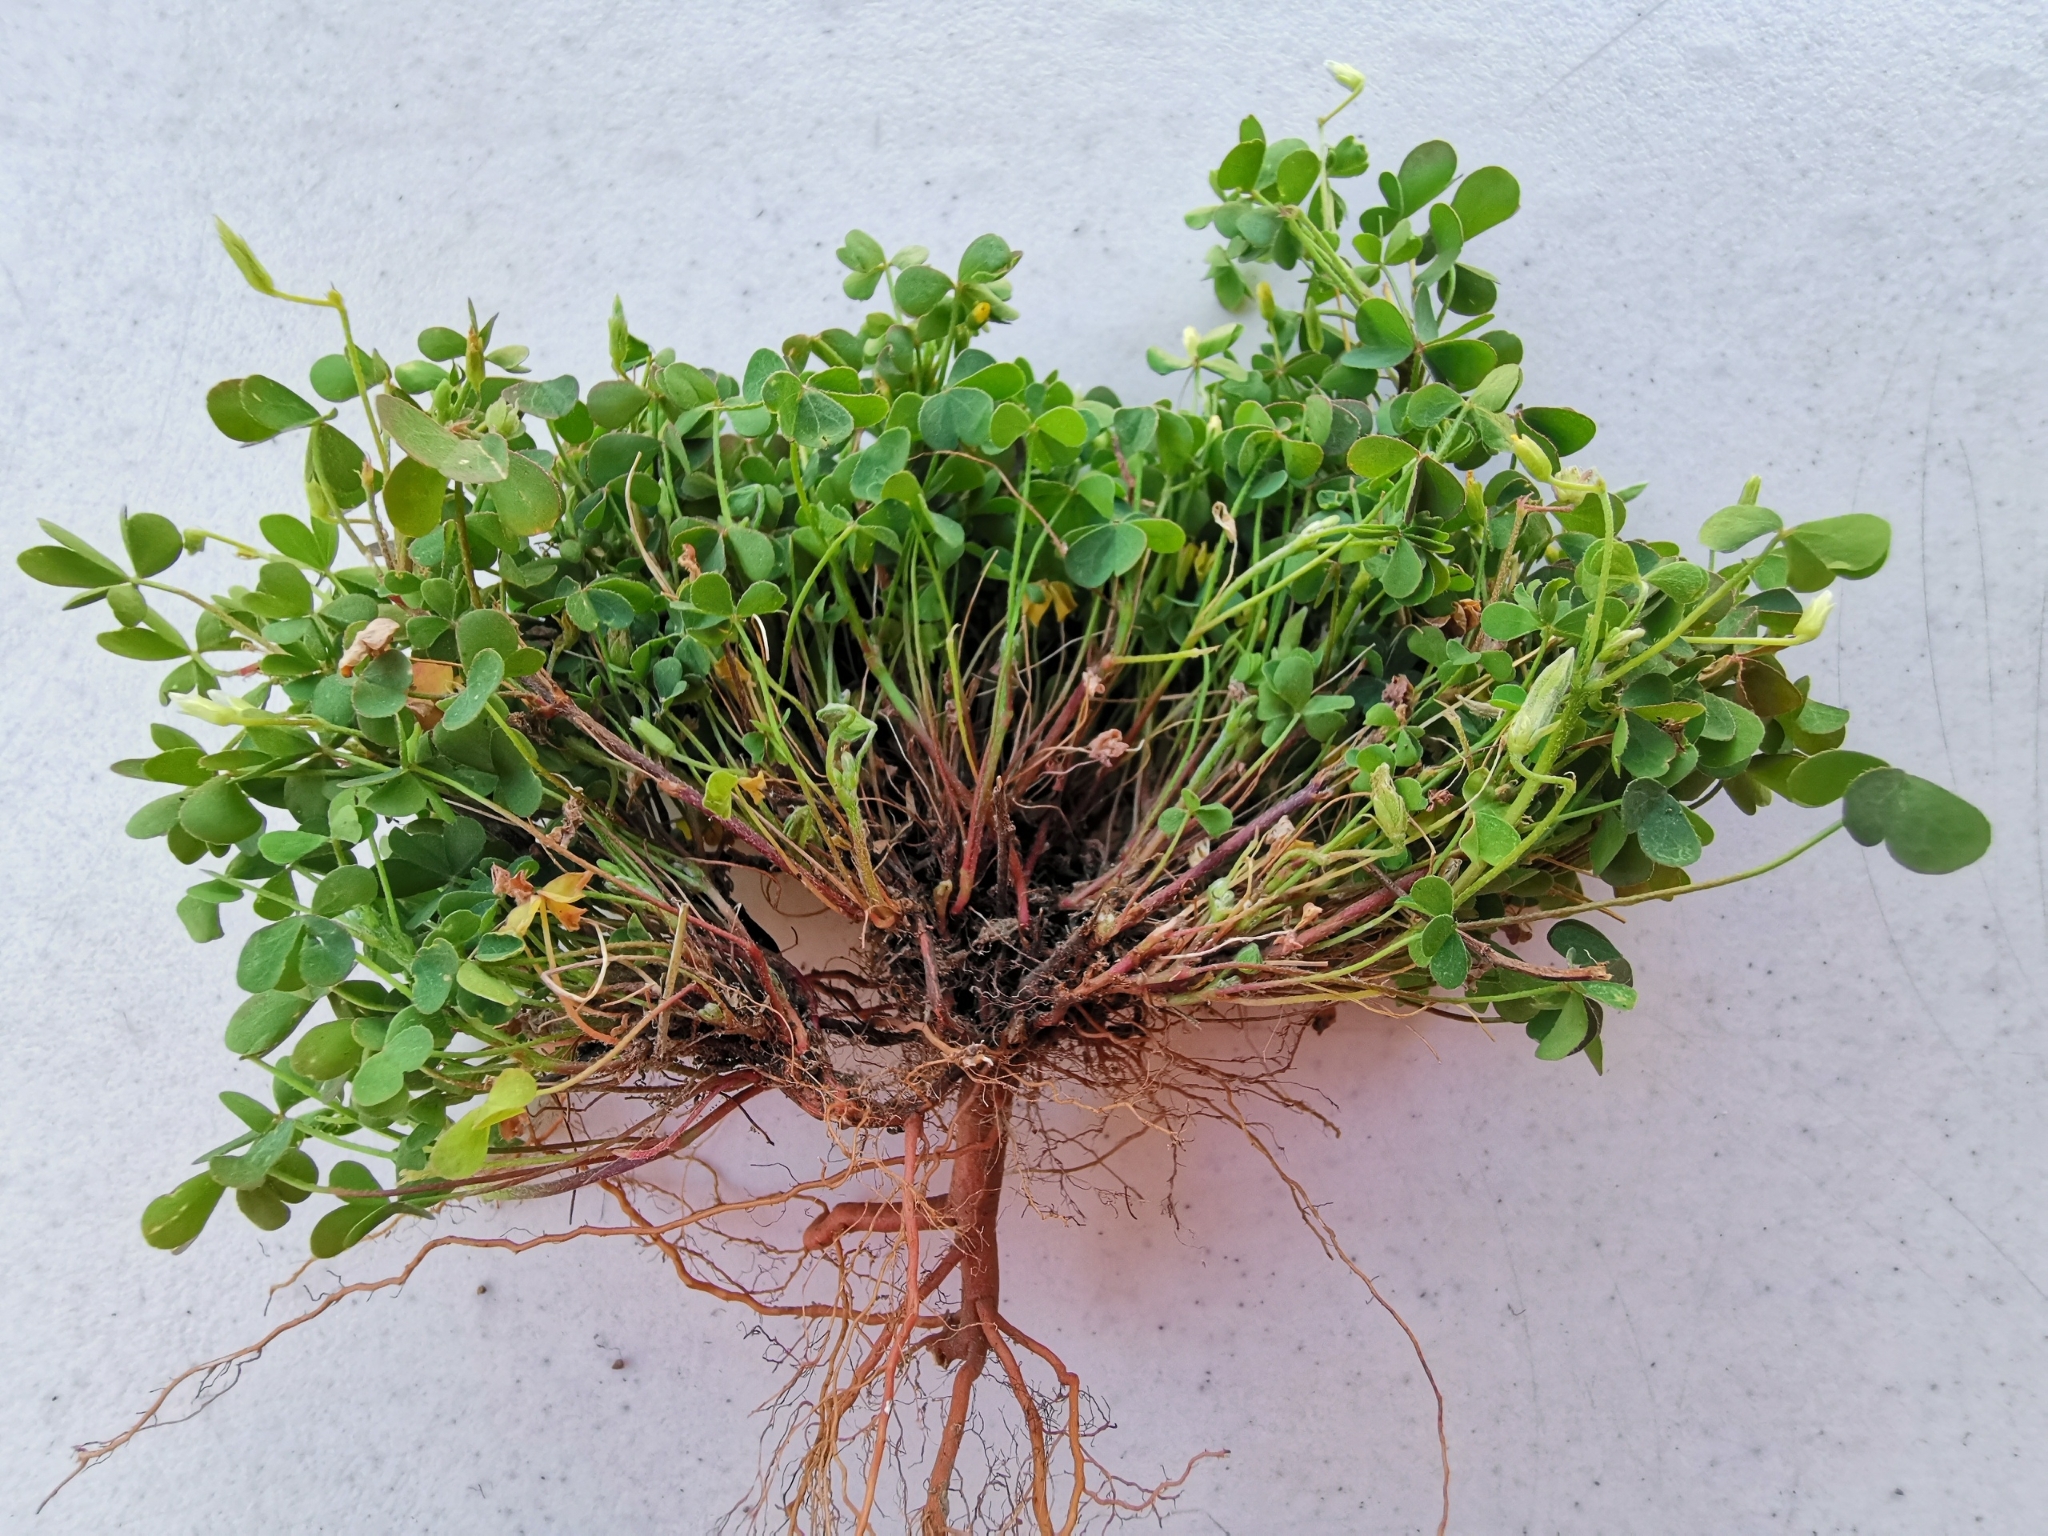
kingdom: Plantae
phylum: Tracheophyta
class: Magnoliopsida
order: Oxalidales
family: Oxalidaceae
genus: Oxalis
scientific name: Oxalis corniculata
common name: Procumbent yellow-sorrel
